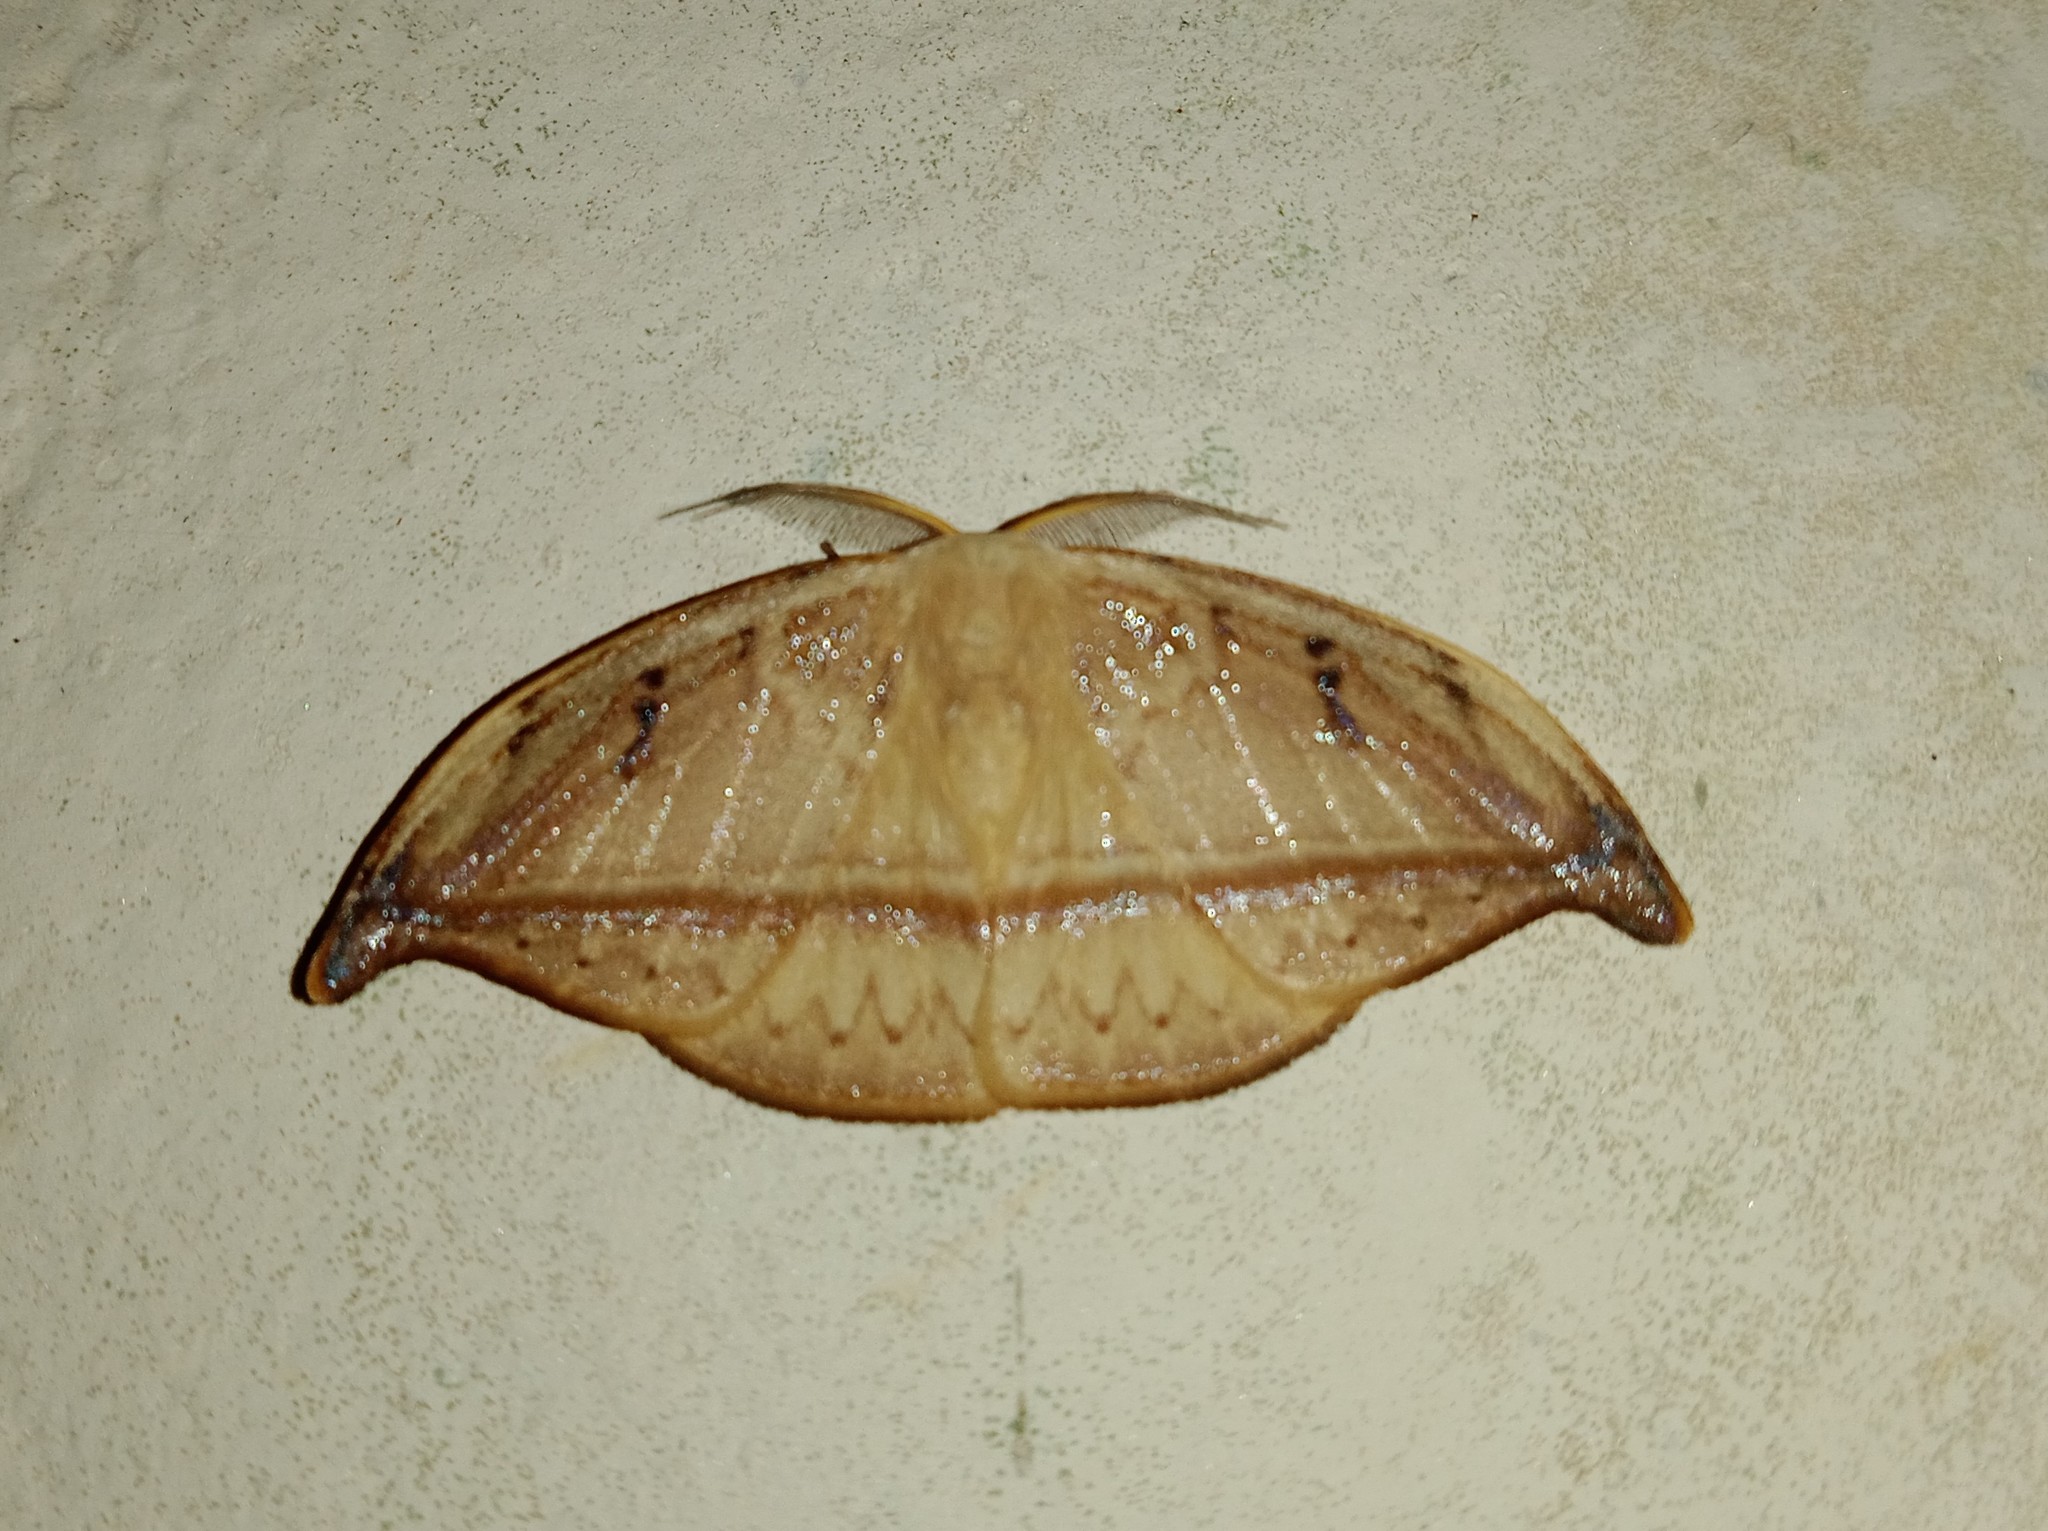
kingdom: Animalia
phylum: Arthropoda
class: Insecta
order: Lepidoptera
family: Drepanidae
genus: Callidrepana
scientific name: Callidrepana patrana
